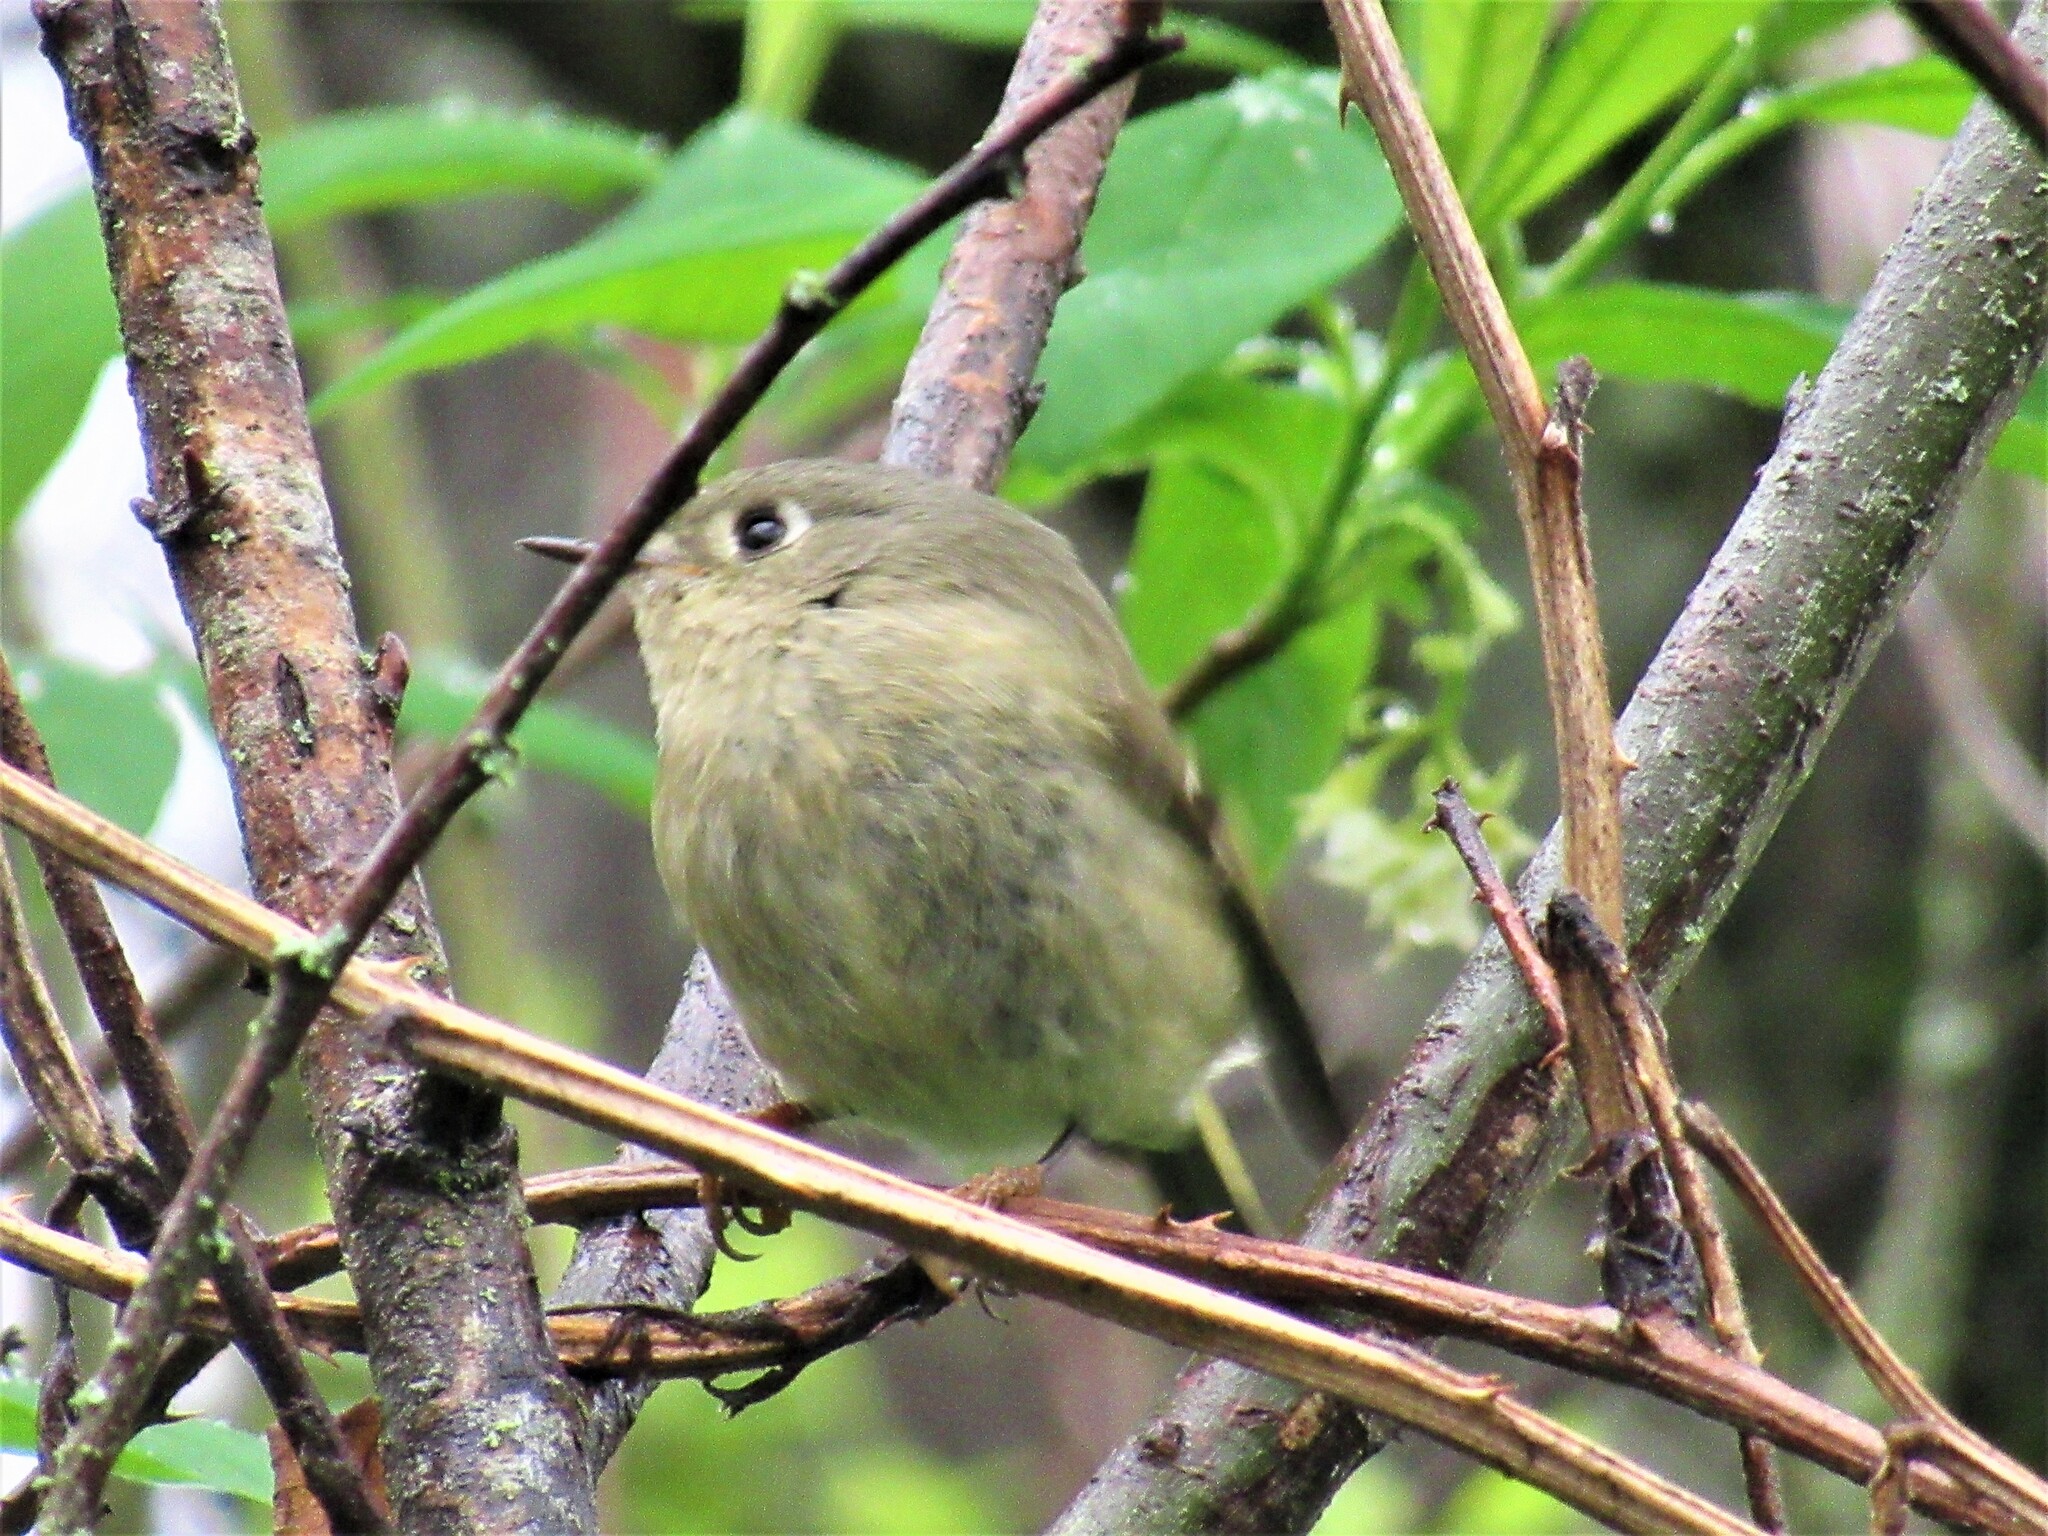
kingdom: Animalia
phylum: Chordata
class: Aves
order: Passeriformes
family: Regulidae
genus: Regulus
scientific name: Regulus calendula
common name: Ruby-crowned kinglet
